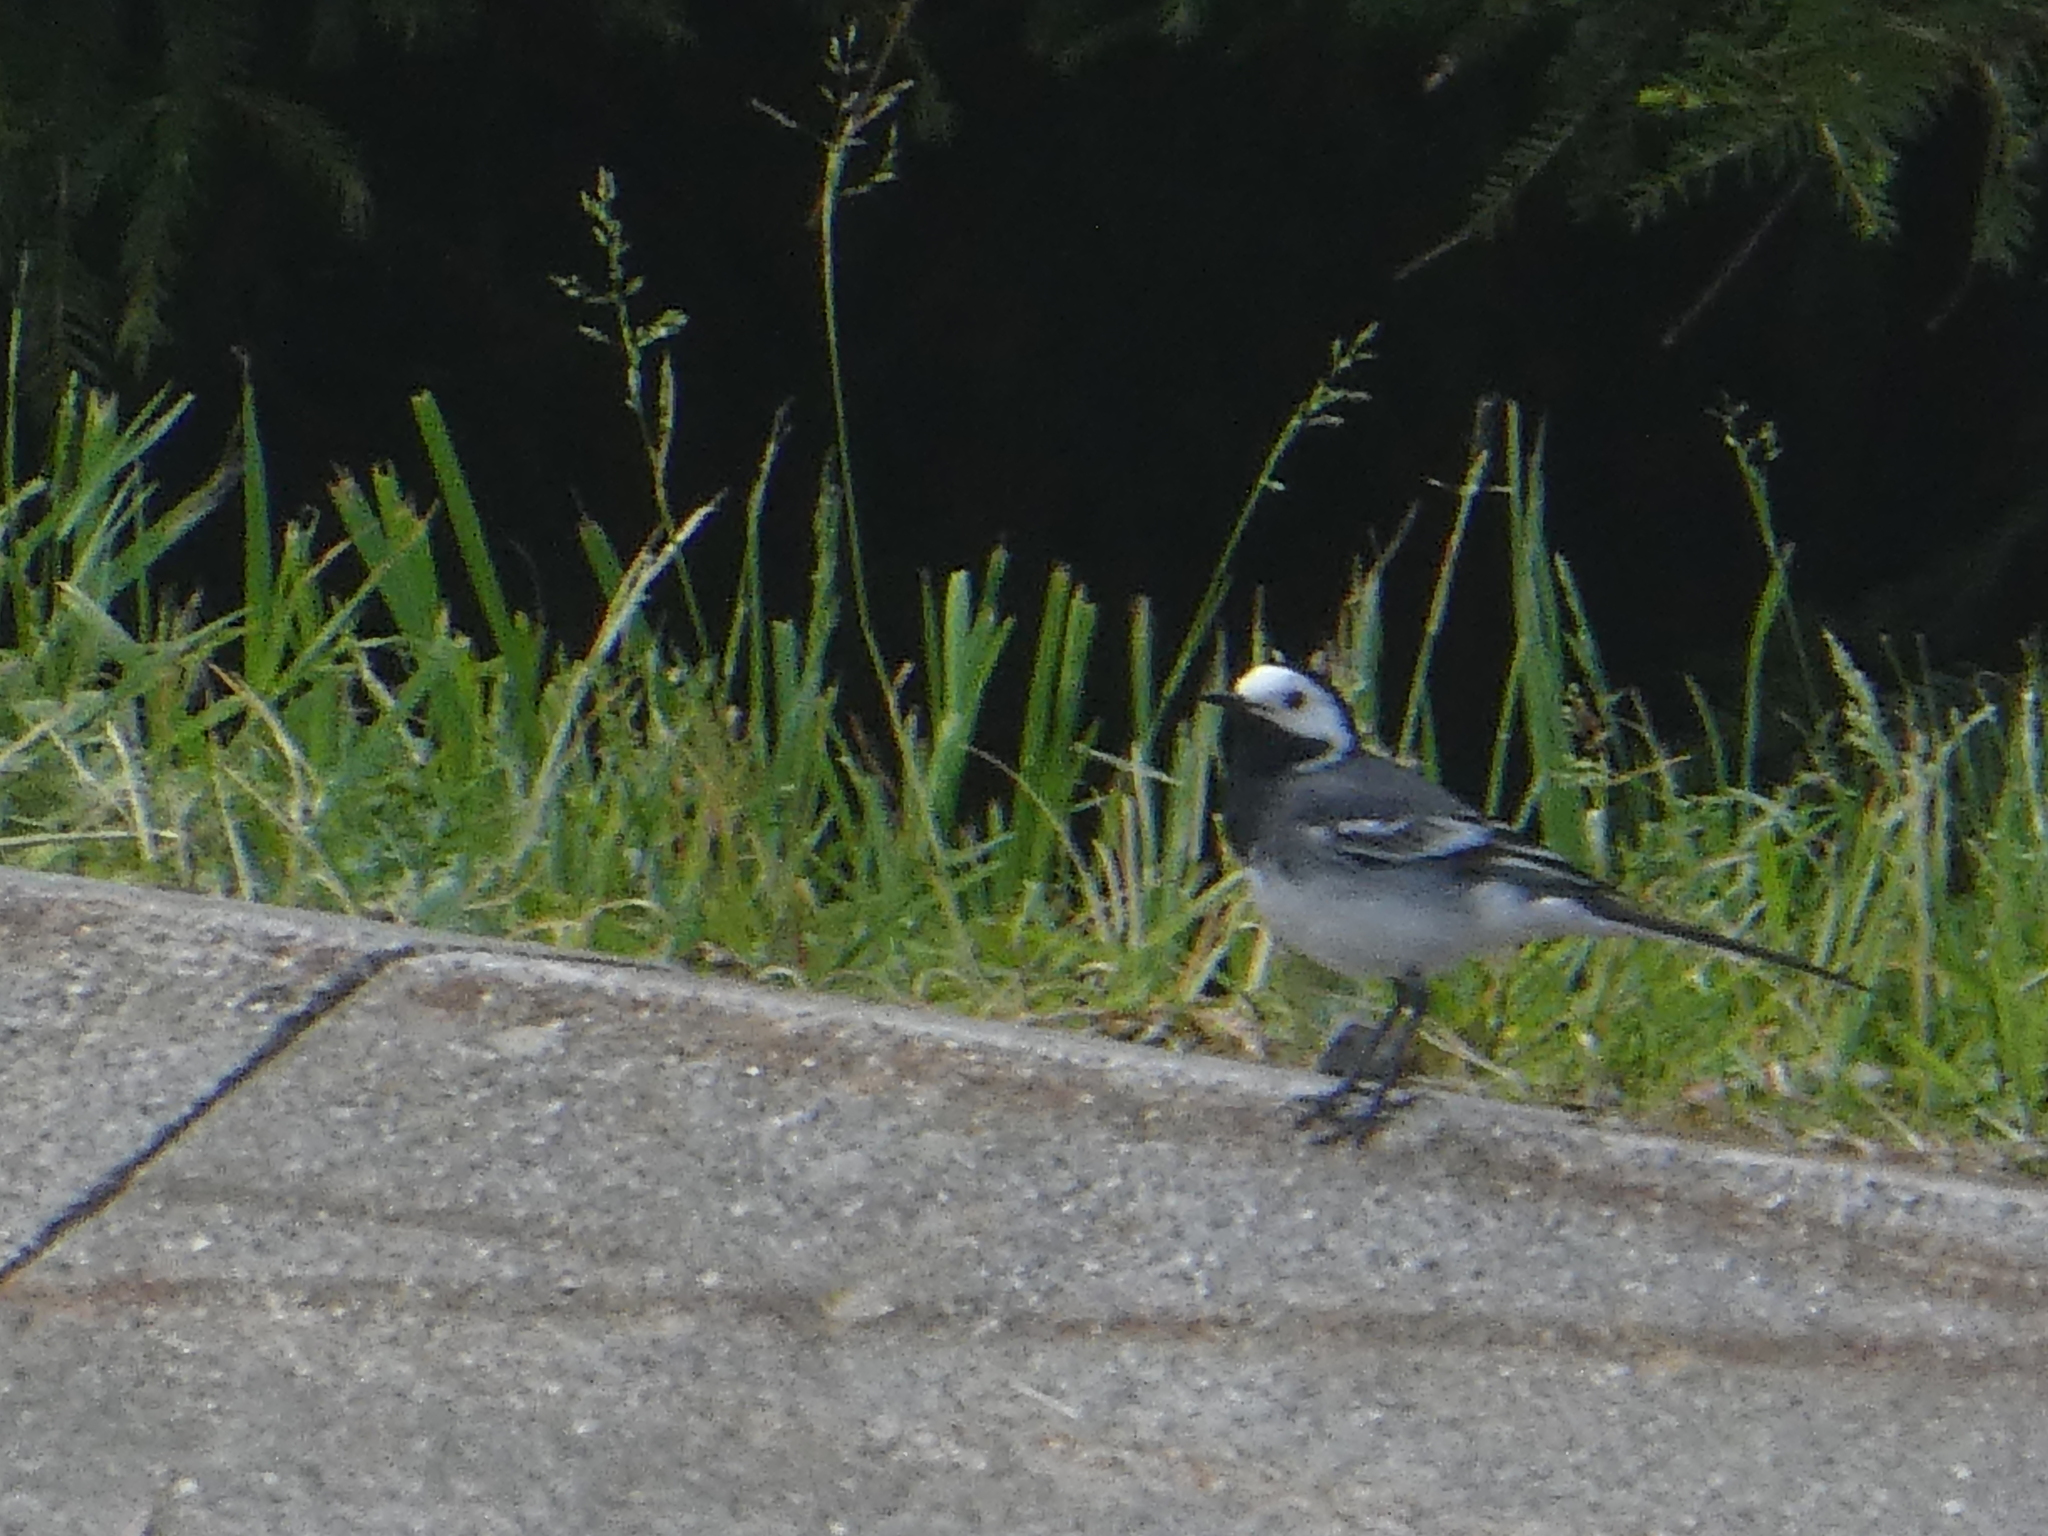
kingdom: Animalia
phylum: Chordata
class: Aves
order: Passeriformes
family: Motacillidae
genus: Motacilla
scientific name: Motacilla alba
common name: White wagtail
